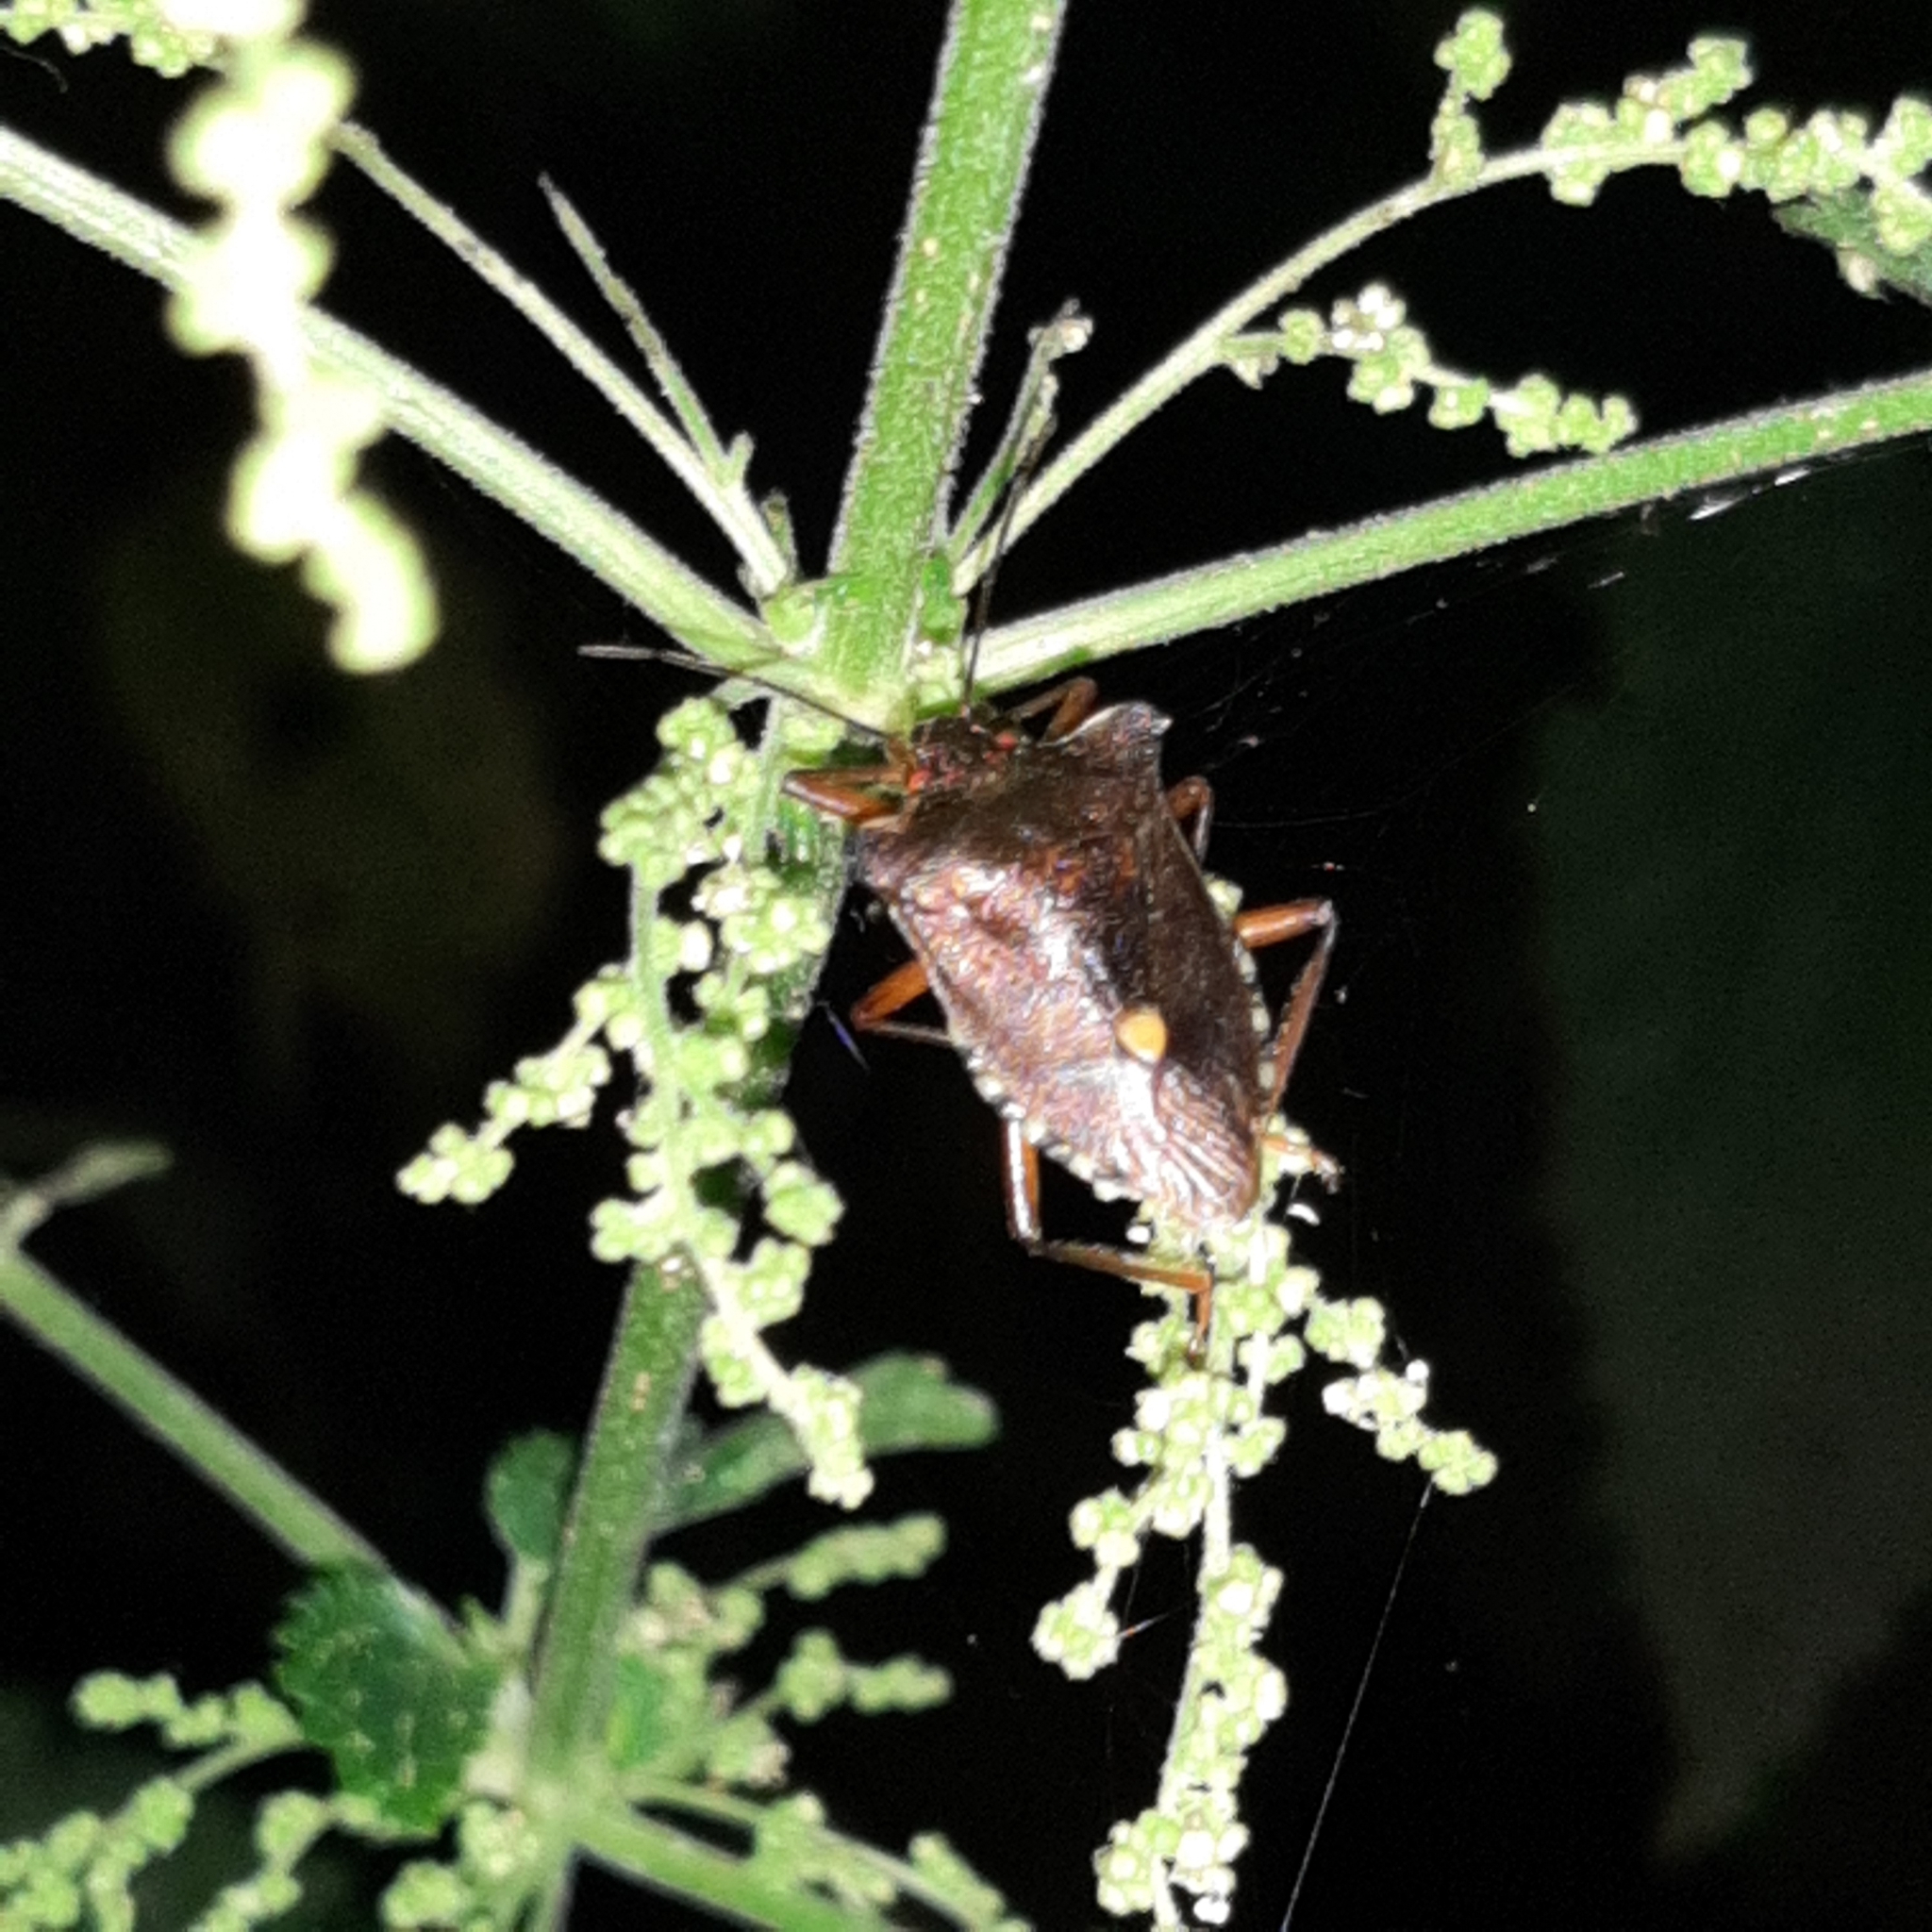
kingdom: Animalia
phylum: Arthropoda
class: Insecta
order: Hemiptera
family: Pentatomidae
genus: Pentatoma
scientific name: Pentatoma rufipes
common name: Forest bug
